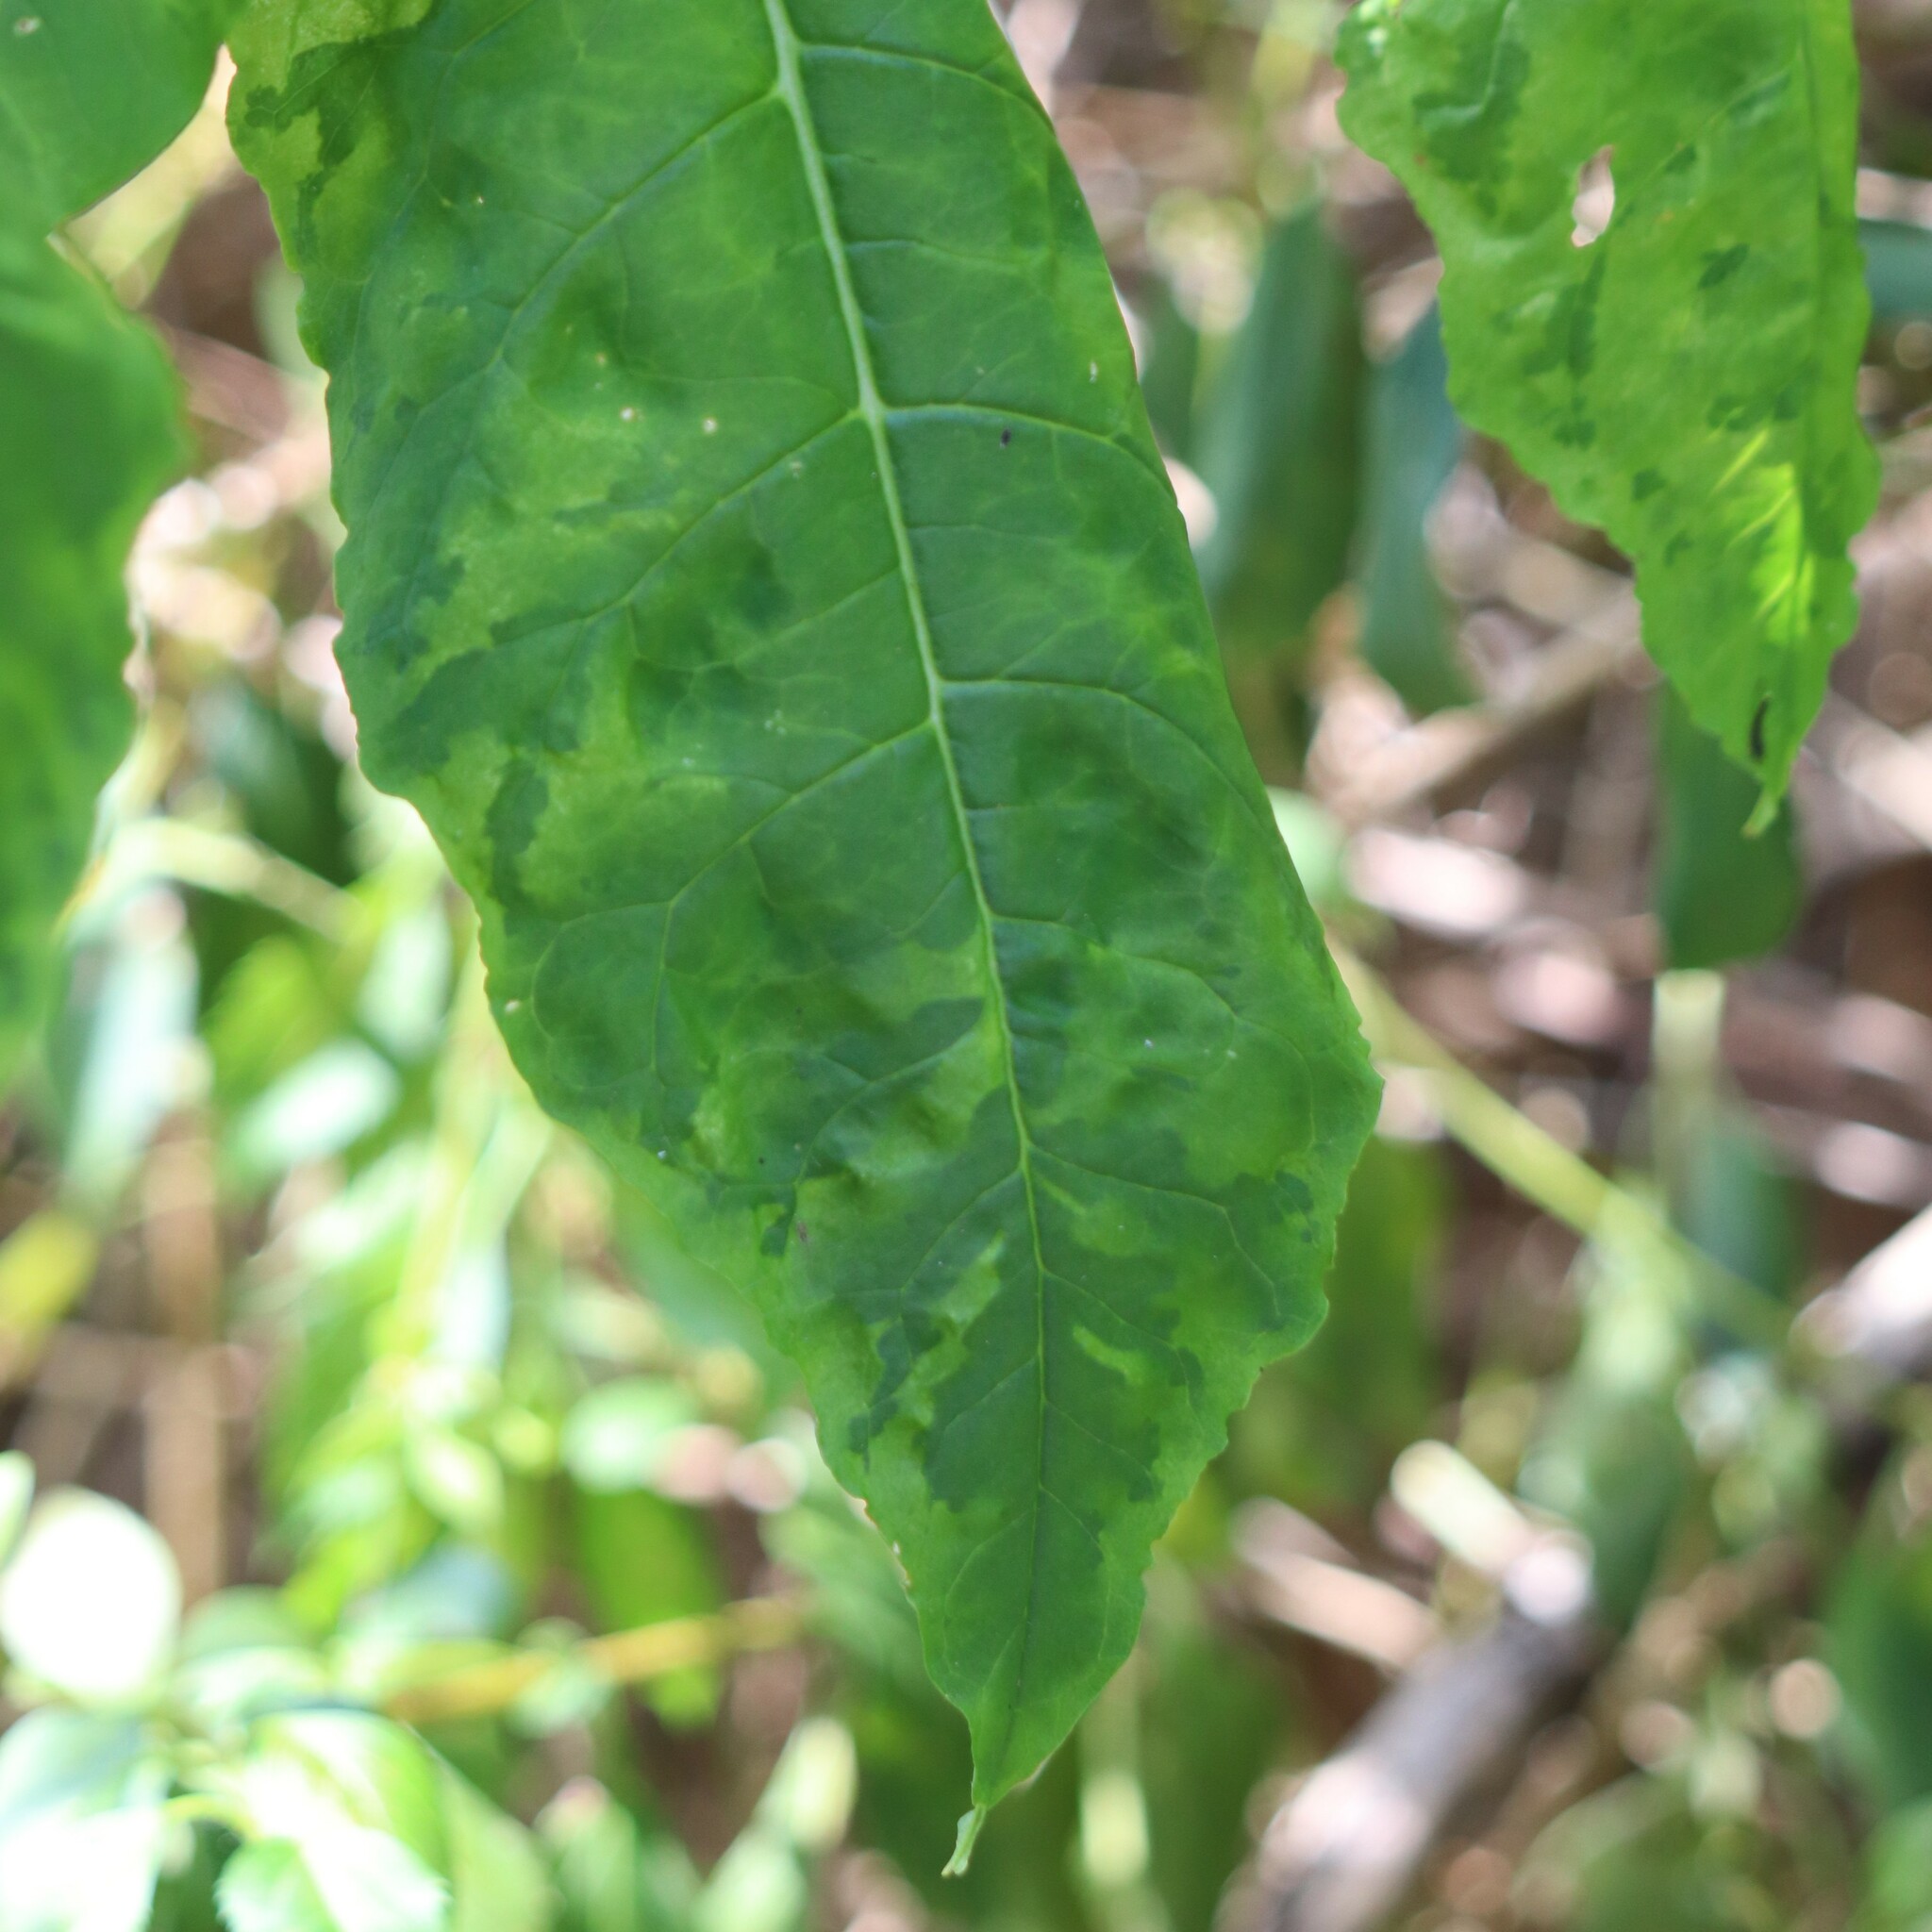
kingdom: Viruses
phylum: Pisuviricota
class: Stelpaviricetes
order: Patatavirales
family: Potyviridae
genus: Potyvirus
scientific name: Potyvirus Pokeweed mosaic virus
